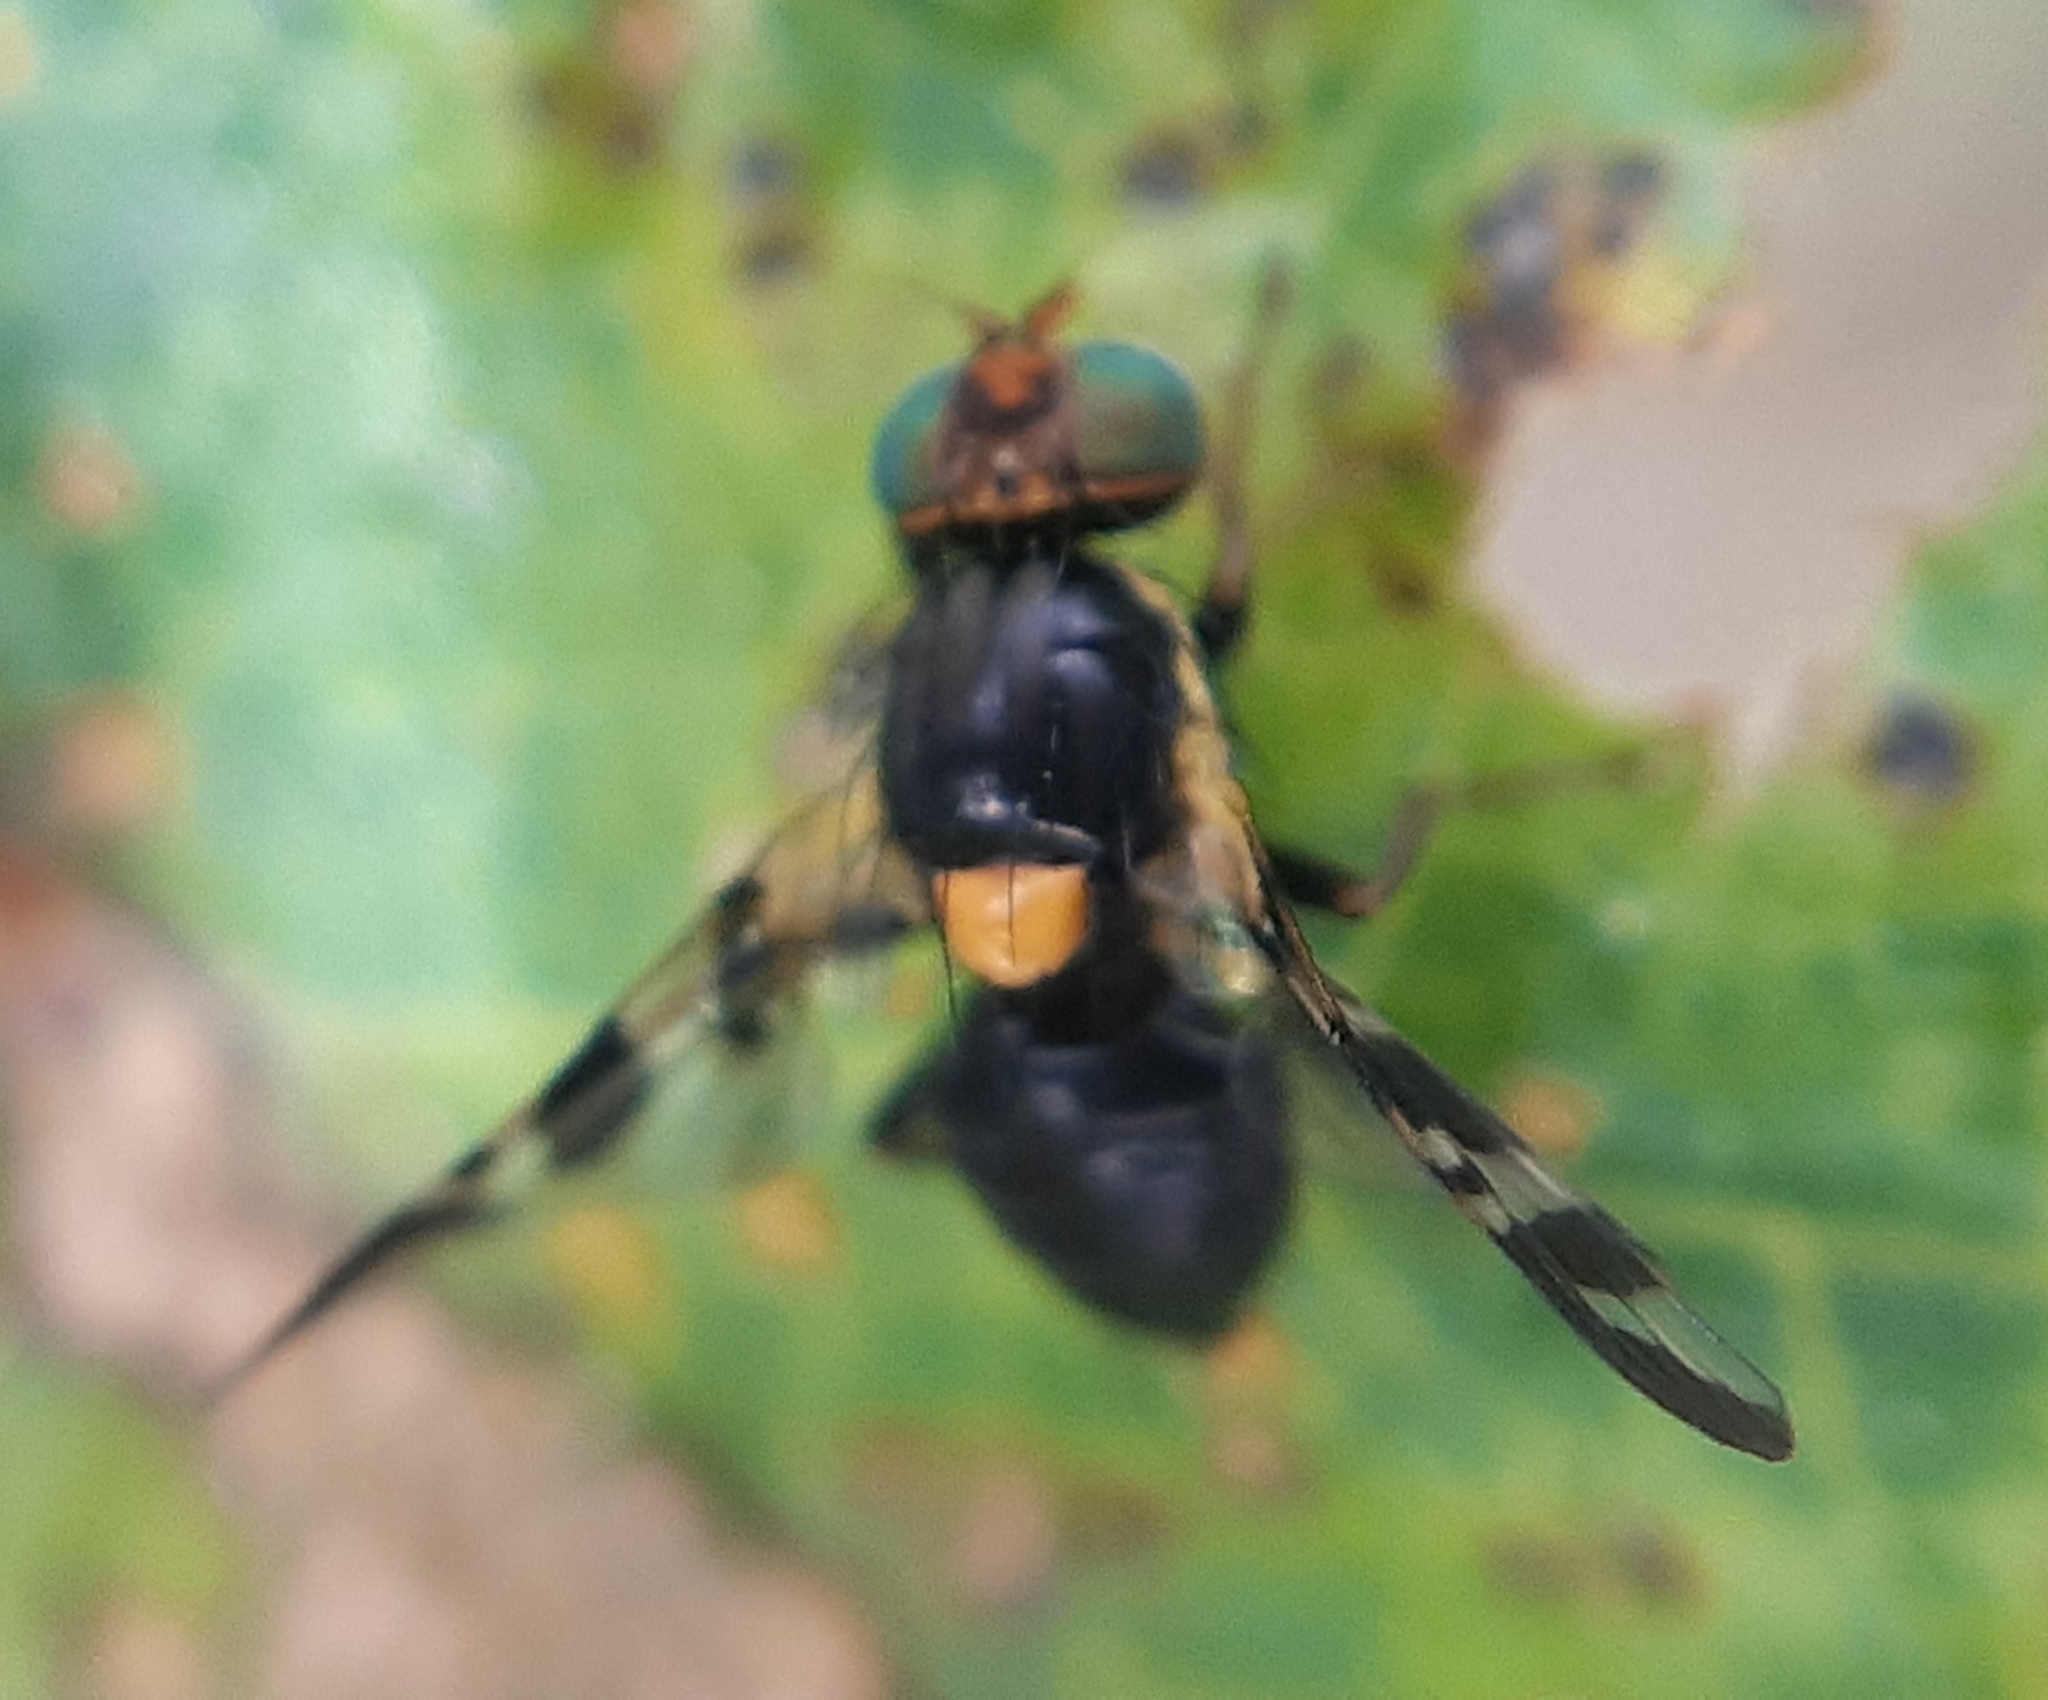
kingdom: Animalia
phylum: Arthropoda
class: Insecta
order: Diptera
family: Tephritidae
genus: Rhagoletis
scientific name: Rhagoletis cerasi
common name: European cherry fruit fly
